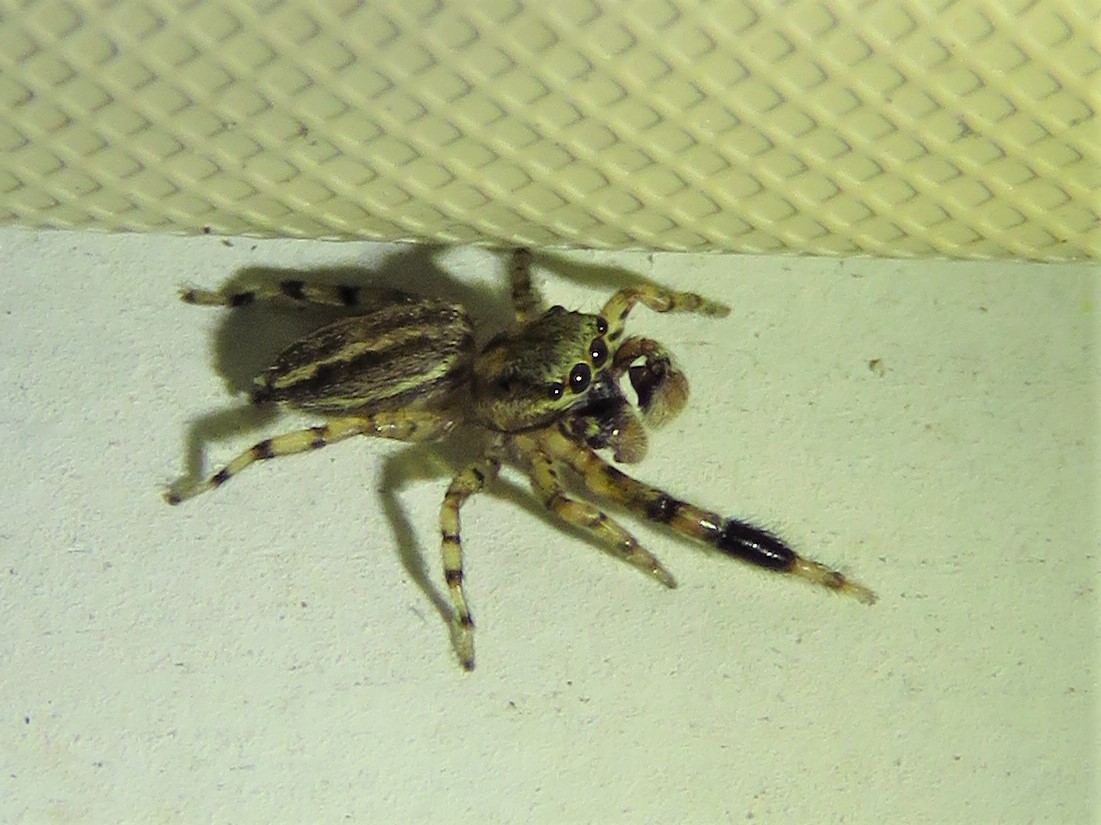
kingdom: Animalia
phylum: Arthropoda
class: Arachnida
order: Araneae
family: Salticidae
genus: Marpissa
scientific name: Marpissa lineata
